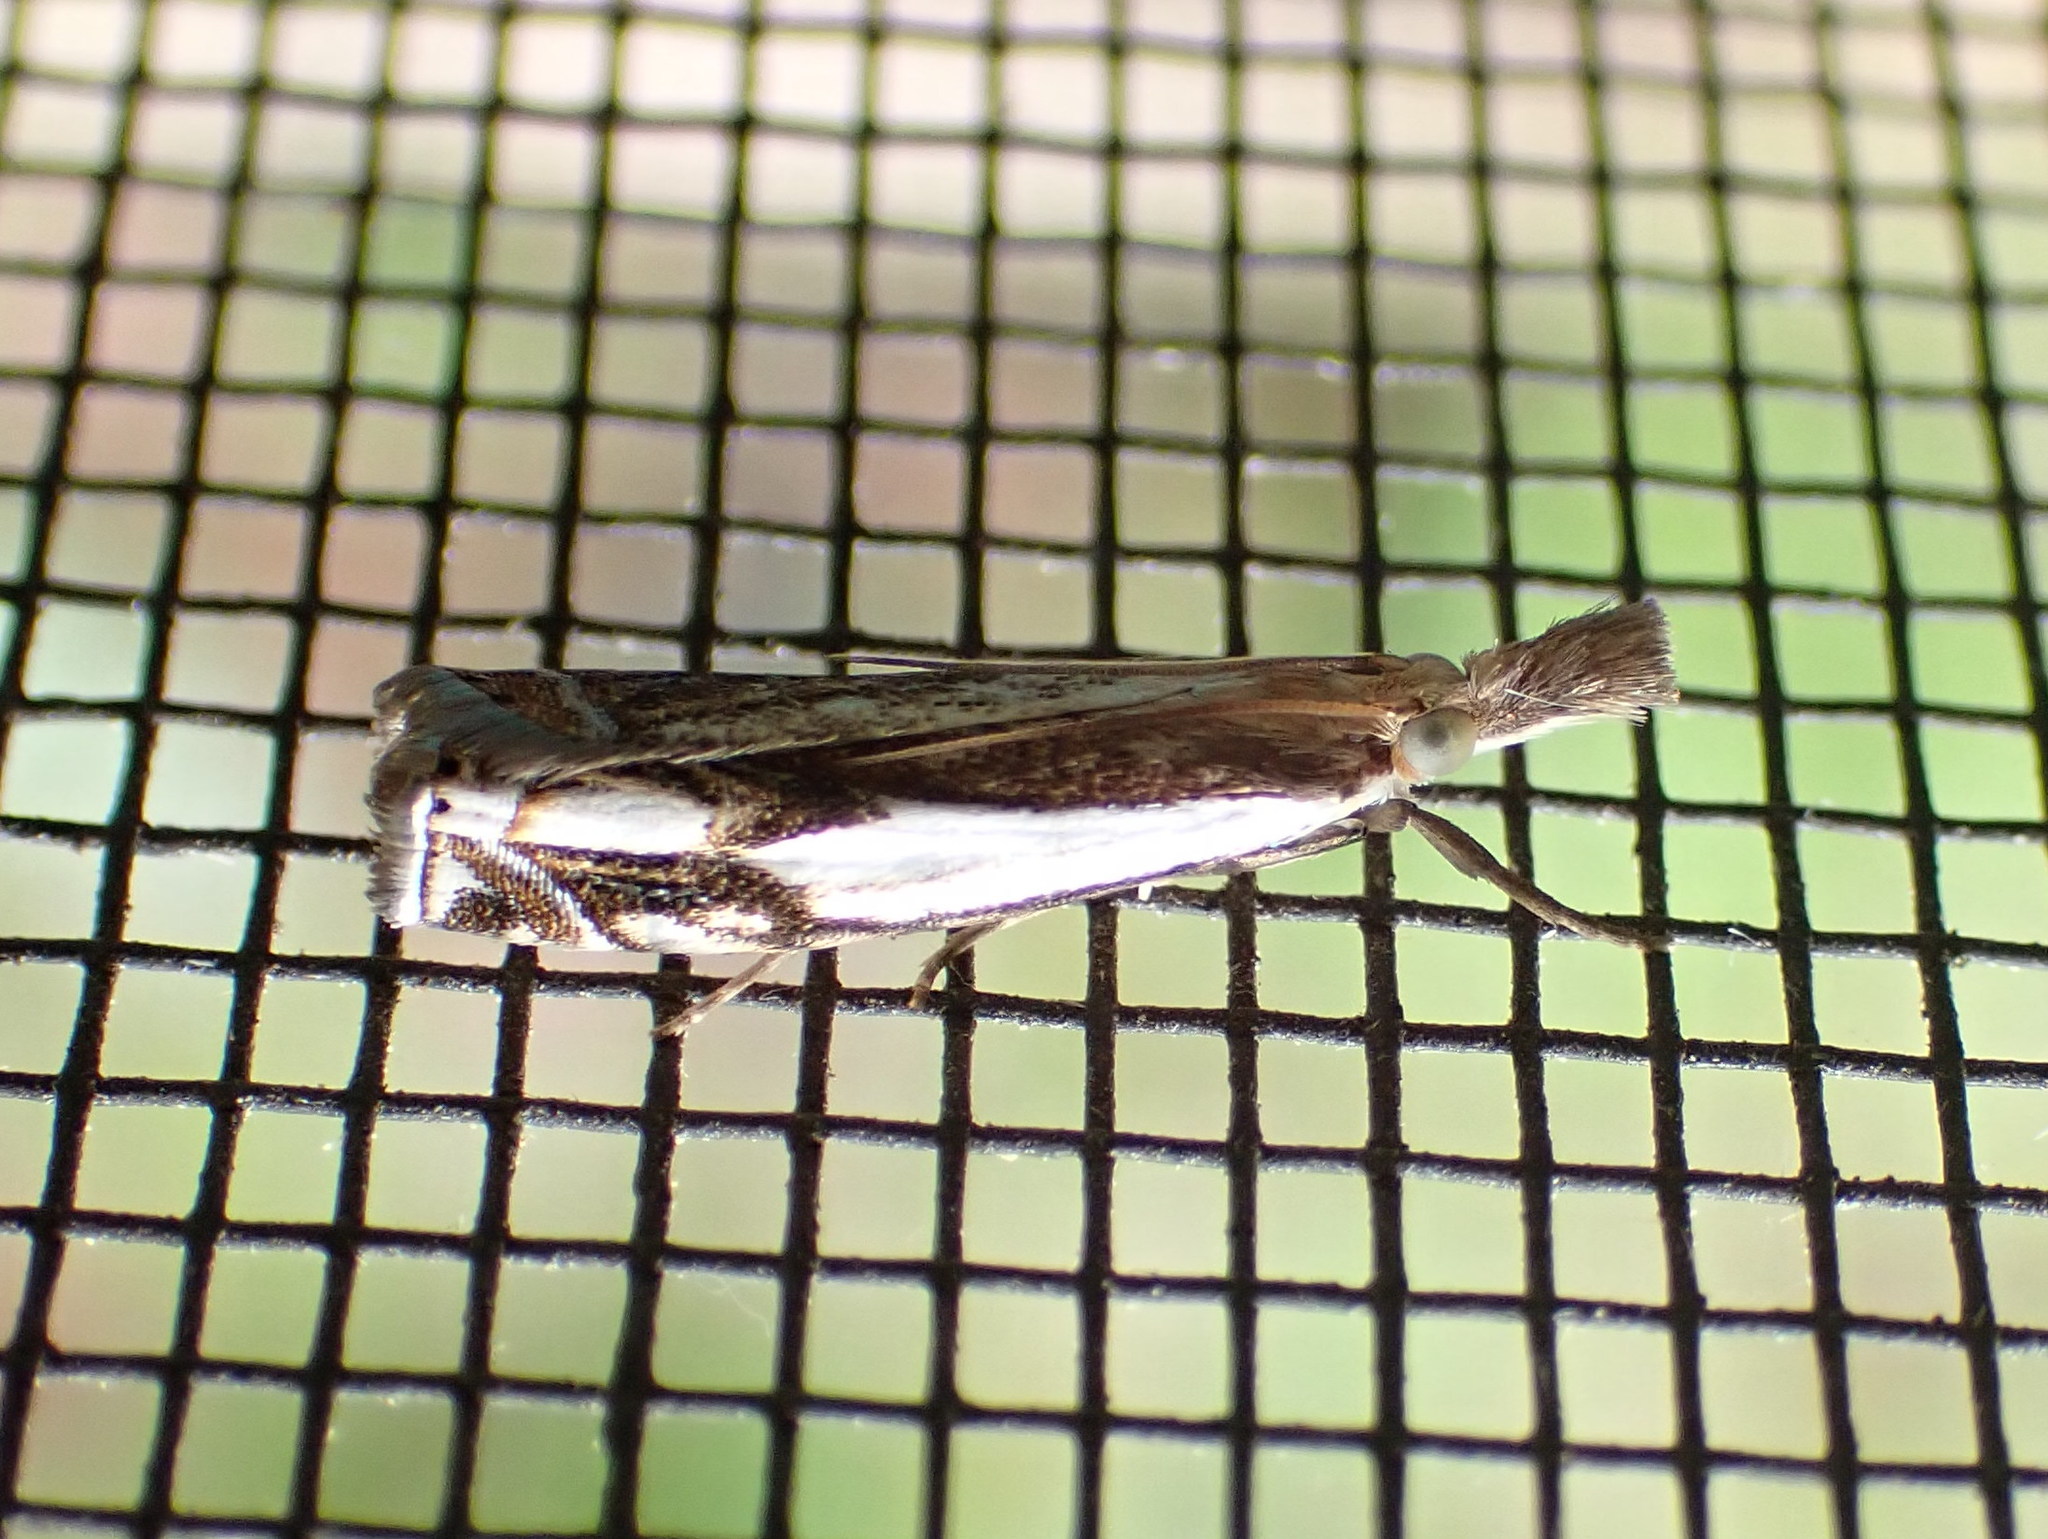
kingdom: Animalia
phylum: Arthropoda
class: Insecta
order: Lepidoptera
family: Crambidae
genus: Crambus
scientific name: Crambus agitatellus
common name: Double-banded grass-veneer
